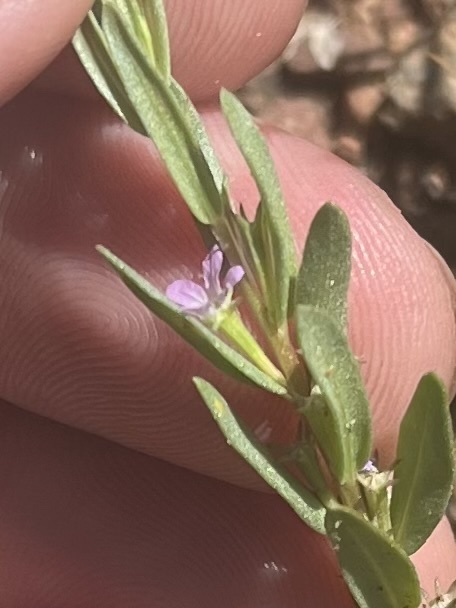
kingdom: Plantae
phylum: Tracheophyta
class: Magnoliopsida
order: Myrtales
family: Lythraceae
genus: Lythrum
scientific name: Lythrum hyssopifolia
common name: Grass-poly
